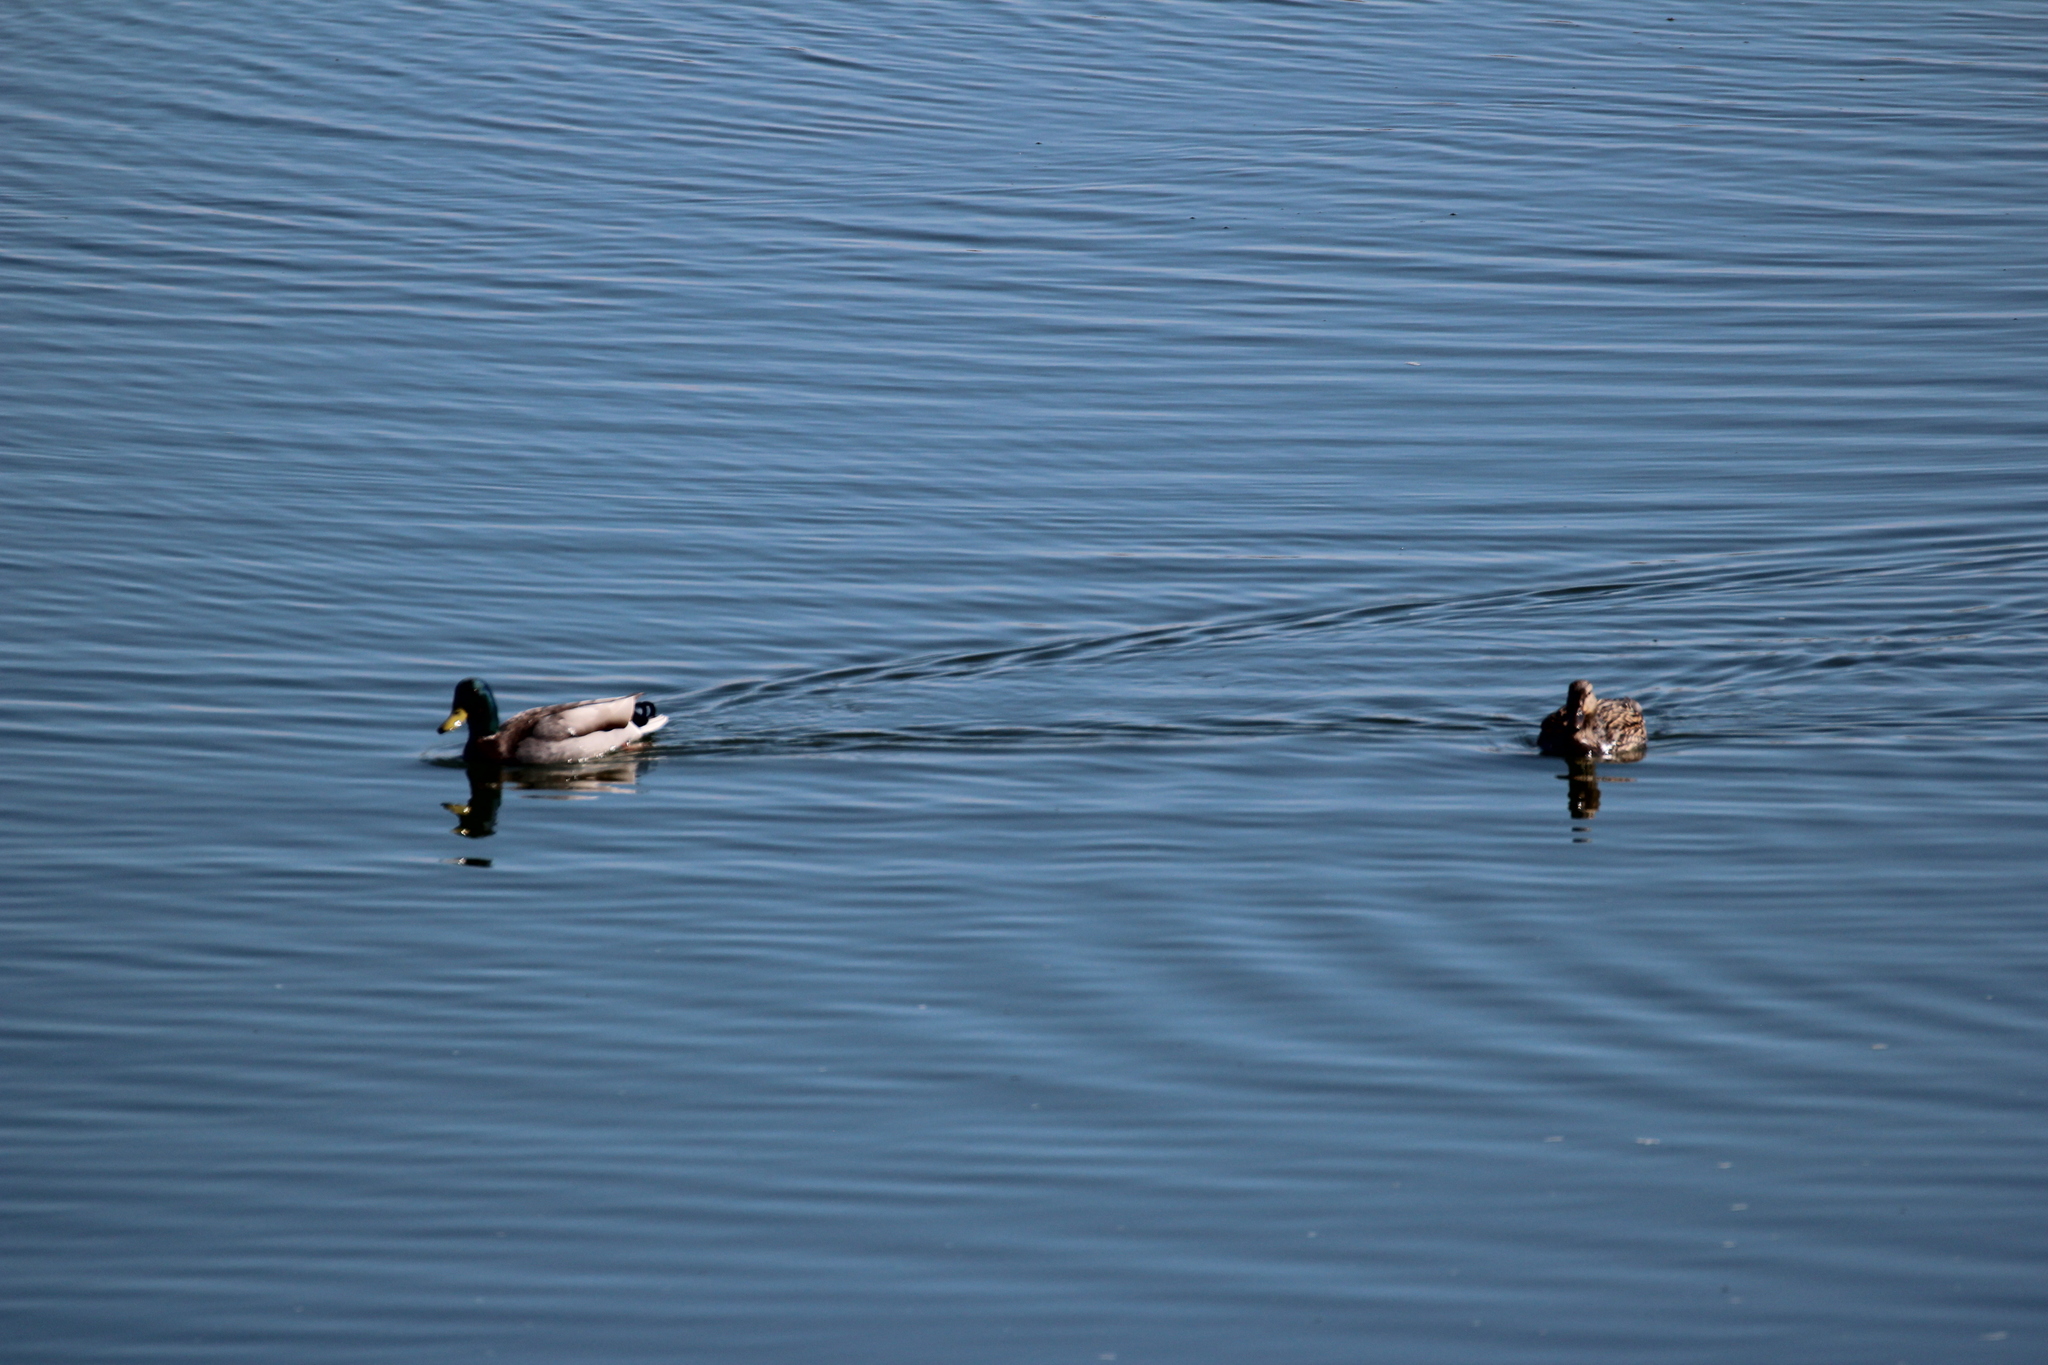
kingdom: Animalia
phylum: Chordata
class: Aves
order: Anseriformes
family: Anatidae
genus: Anas
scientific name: Anas platyrhynchos
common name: Mallard
